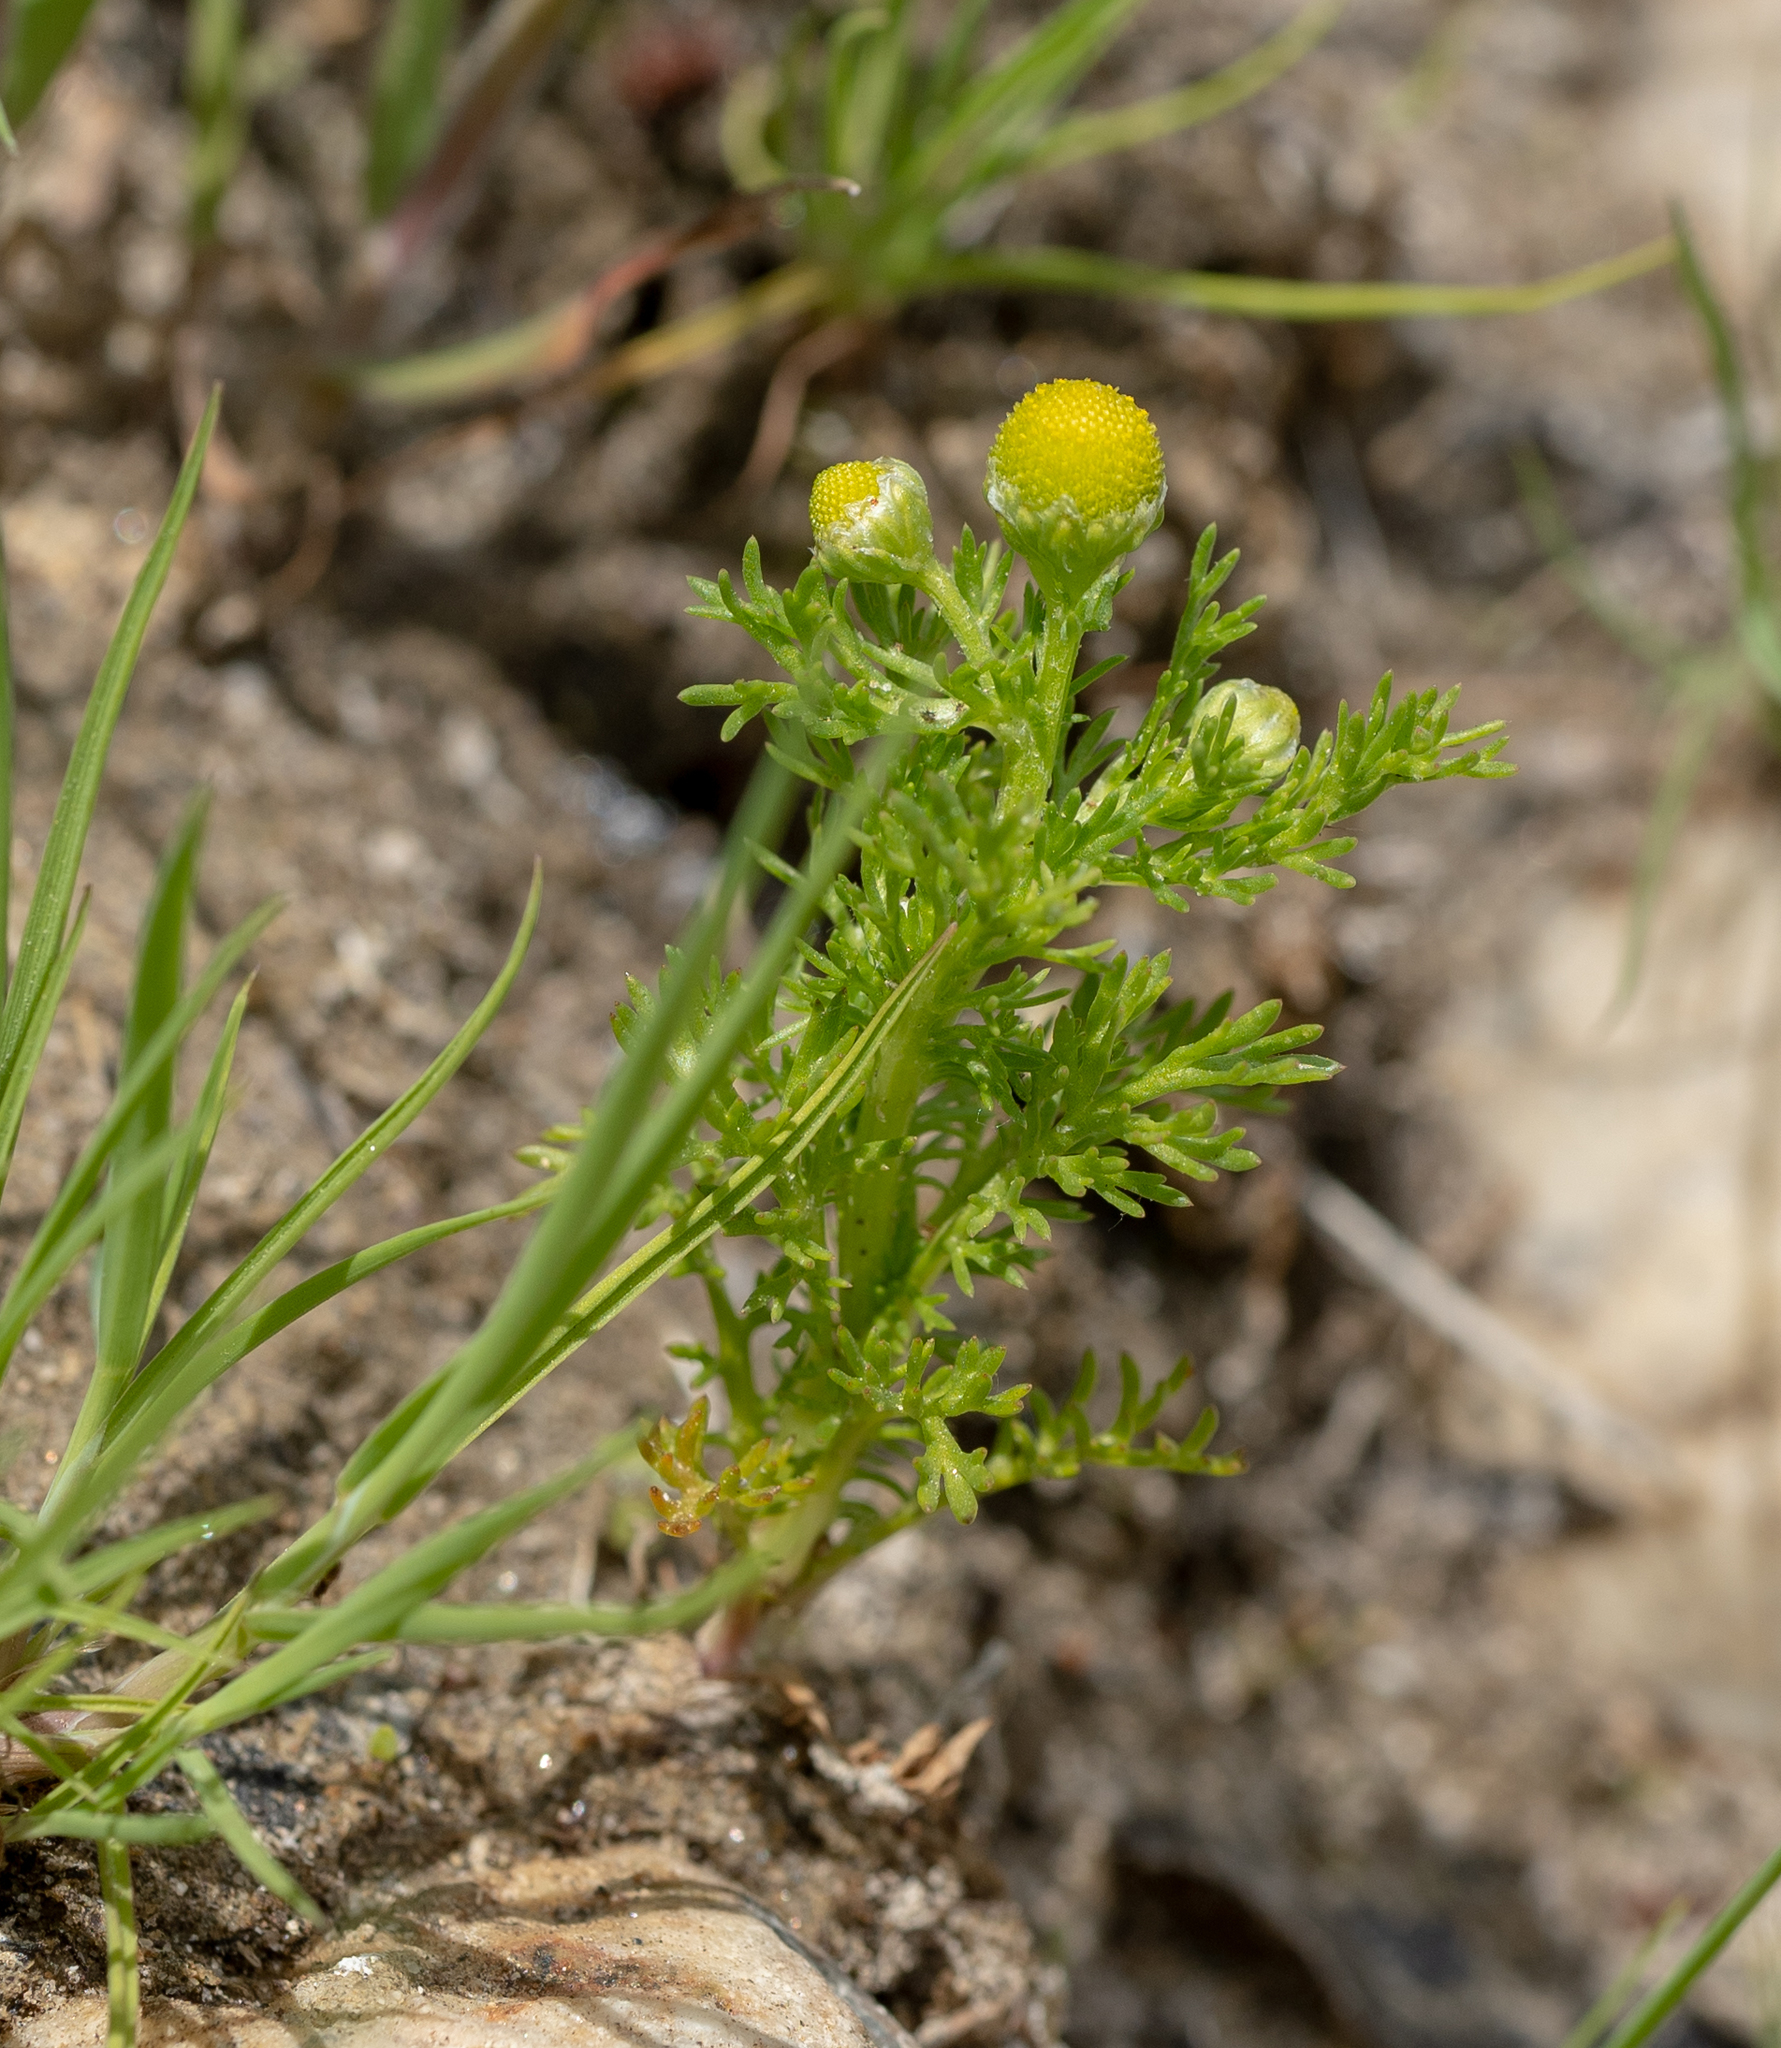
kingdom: Plantae
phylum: Tracheophyta
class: Magnoliopsida
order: Asterales
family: Asteraceae
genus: Matricaria
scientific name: Matricaria discoidea
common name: Disc mayweed
